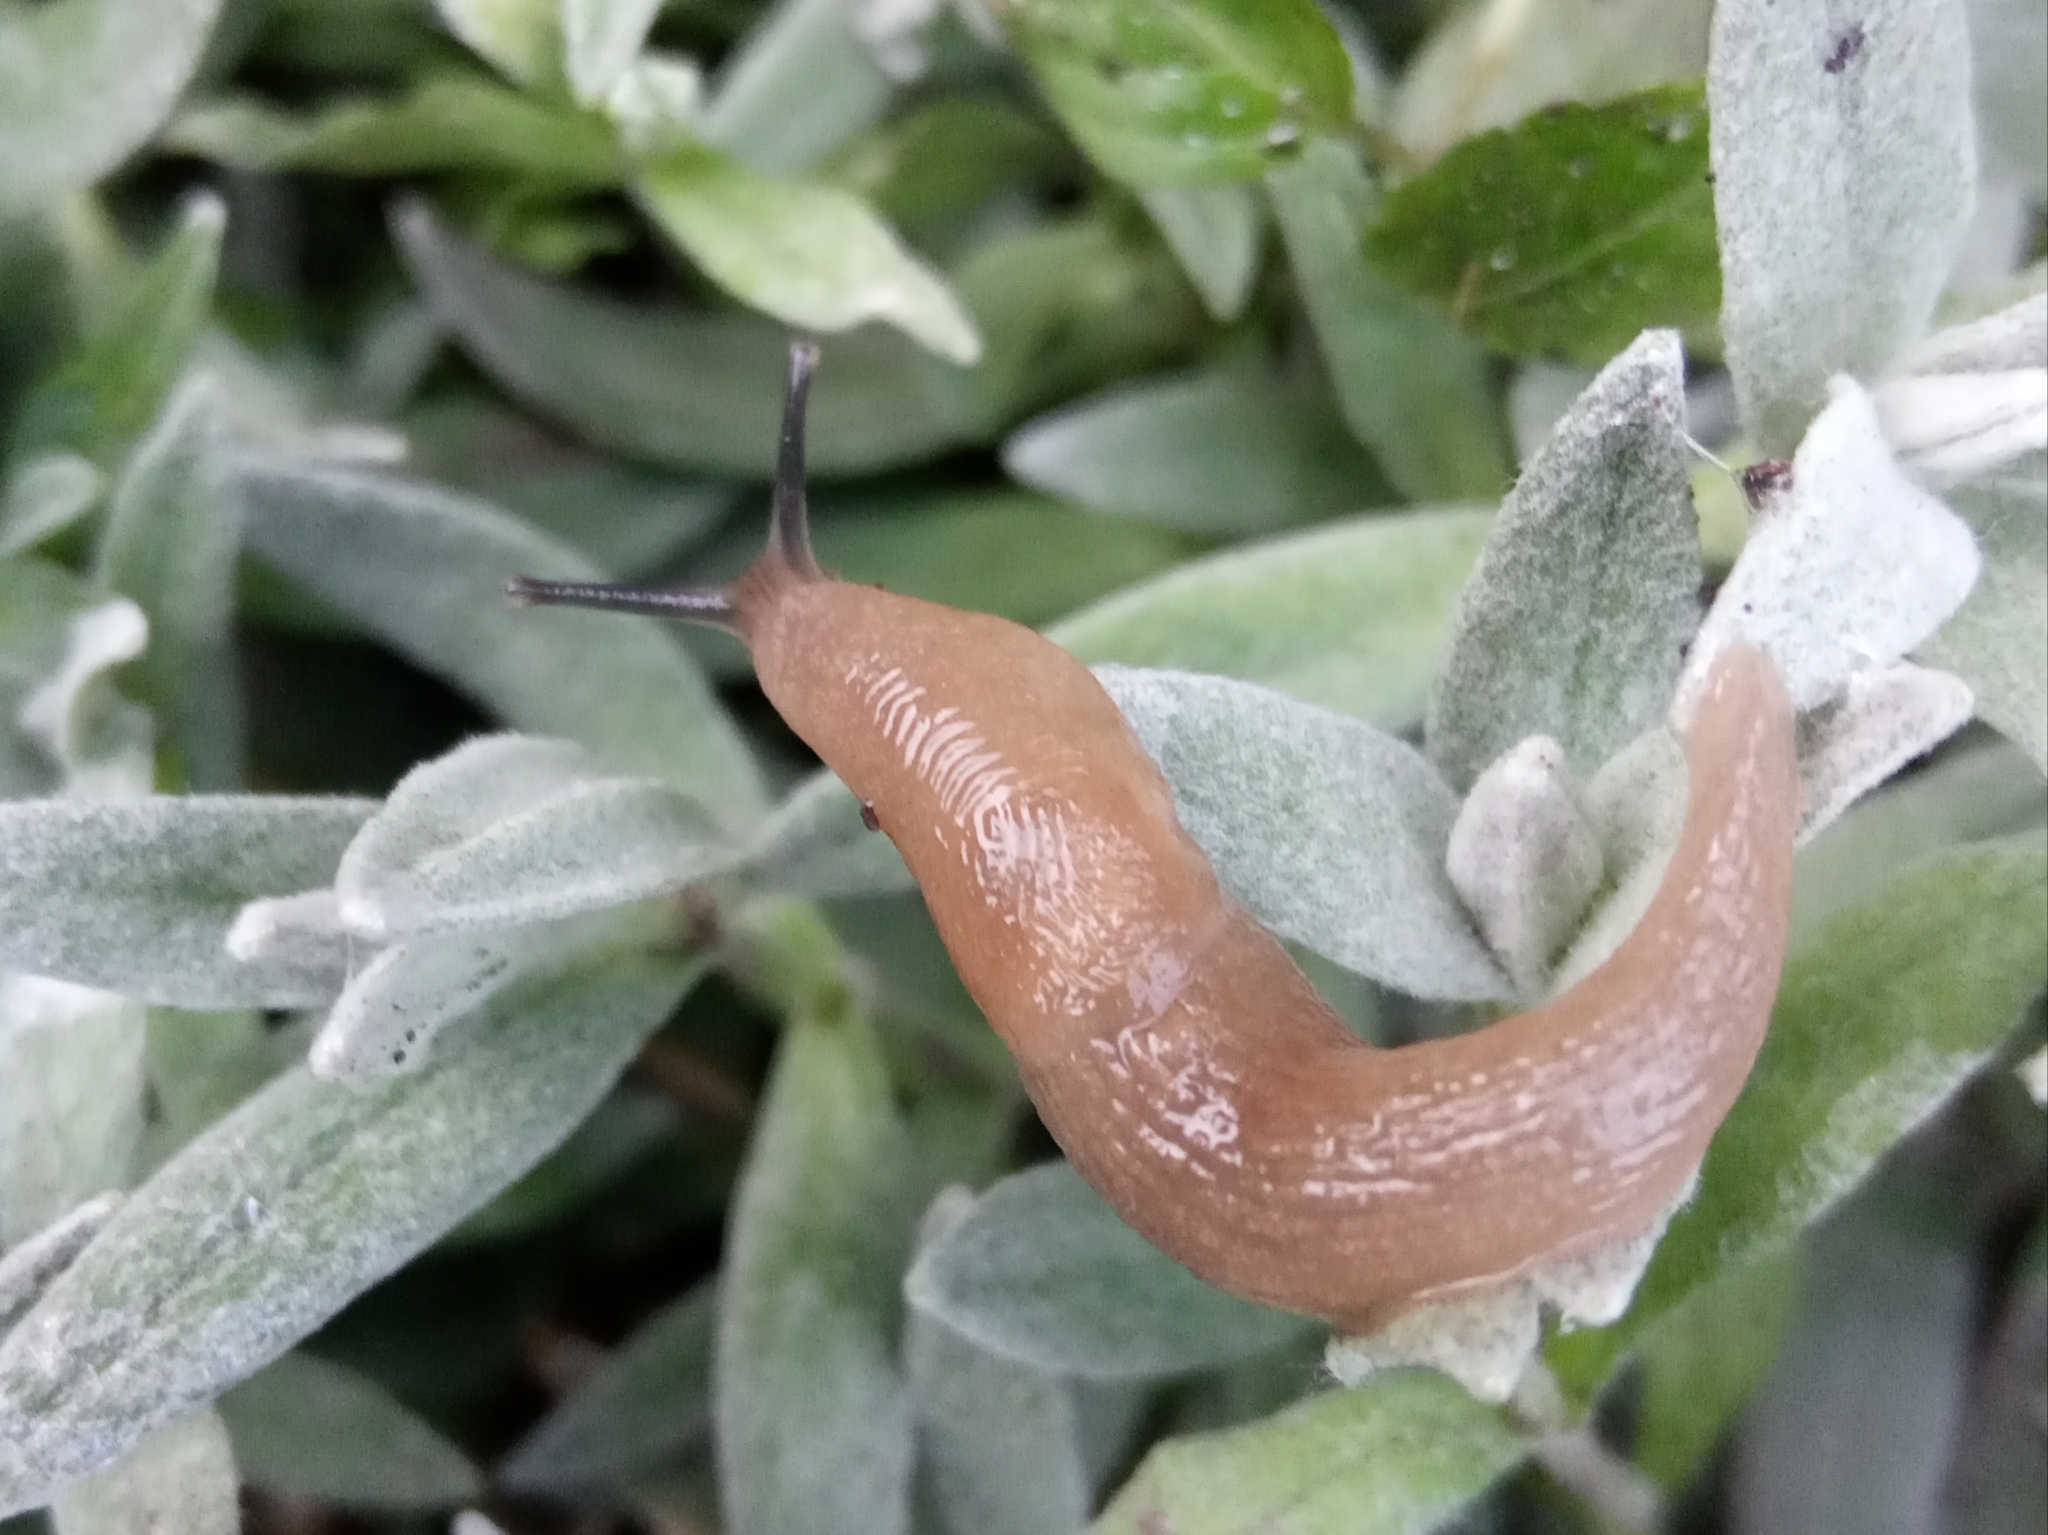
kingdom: Animalia
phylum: Mollusca
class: Gastropoda
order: Stylommatophora
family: Agriolimacidae
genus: Deroceras
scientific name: Deroceras
